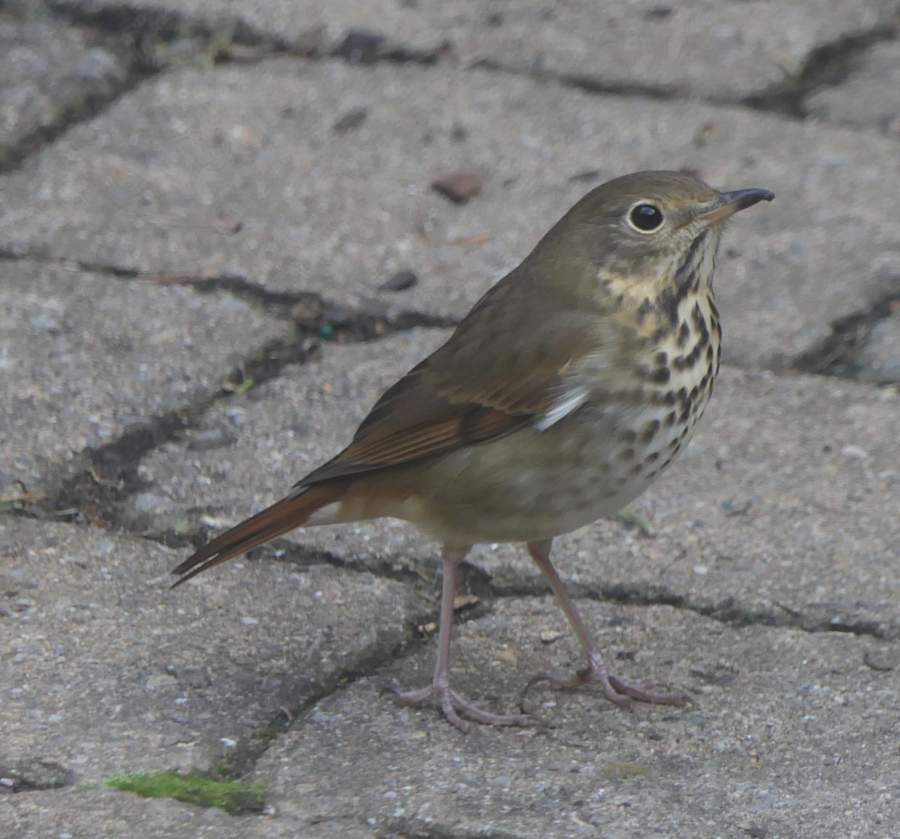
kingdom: Animalia
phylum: Chordata
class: Aves
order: Passeriformes
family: Turdidae
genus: Catharus
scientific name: Catharus guttatus
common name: Hermit thrush
